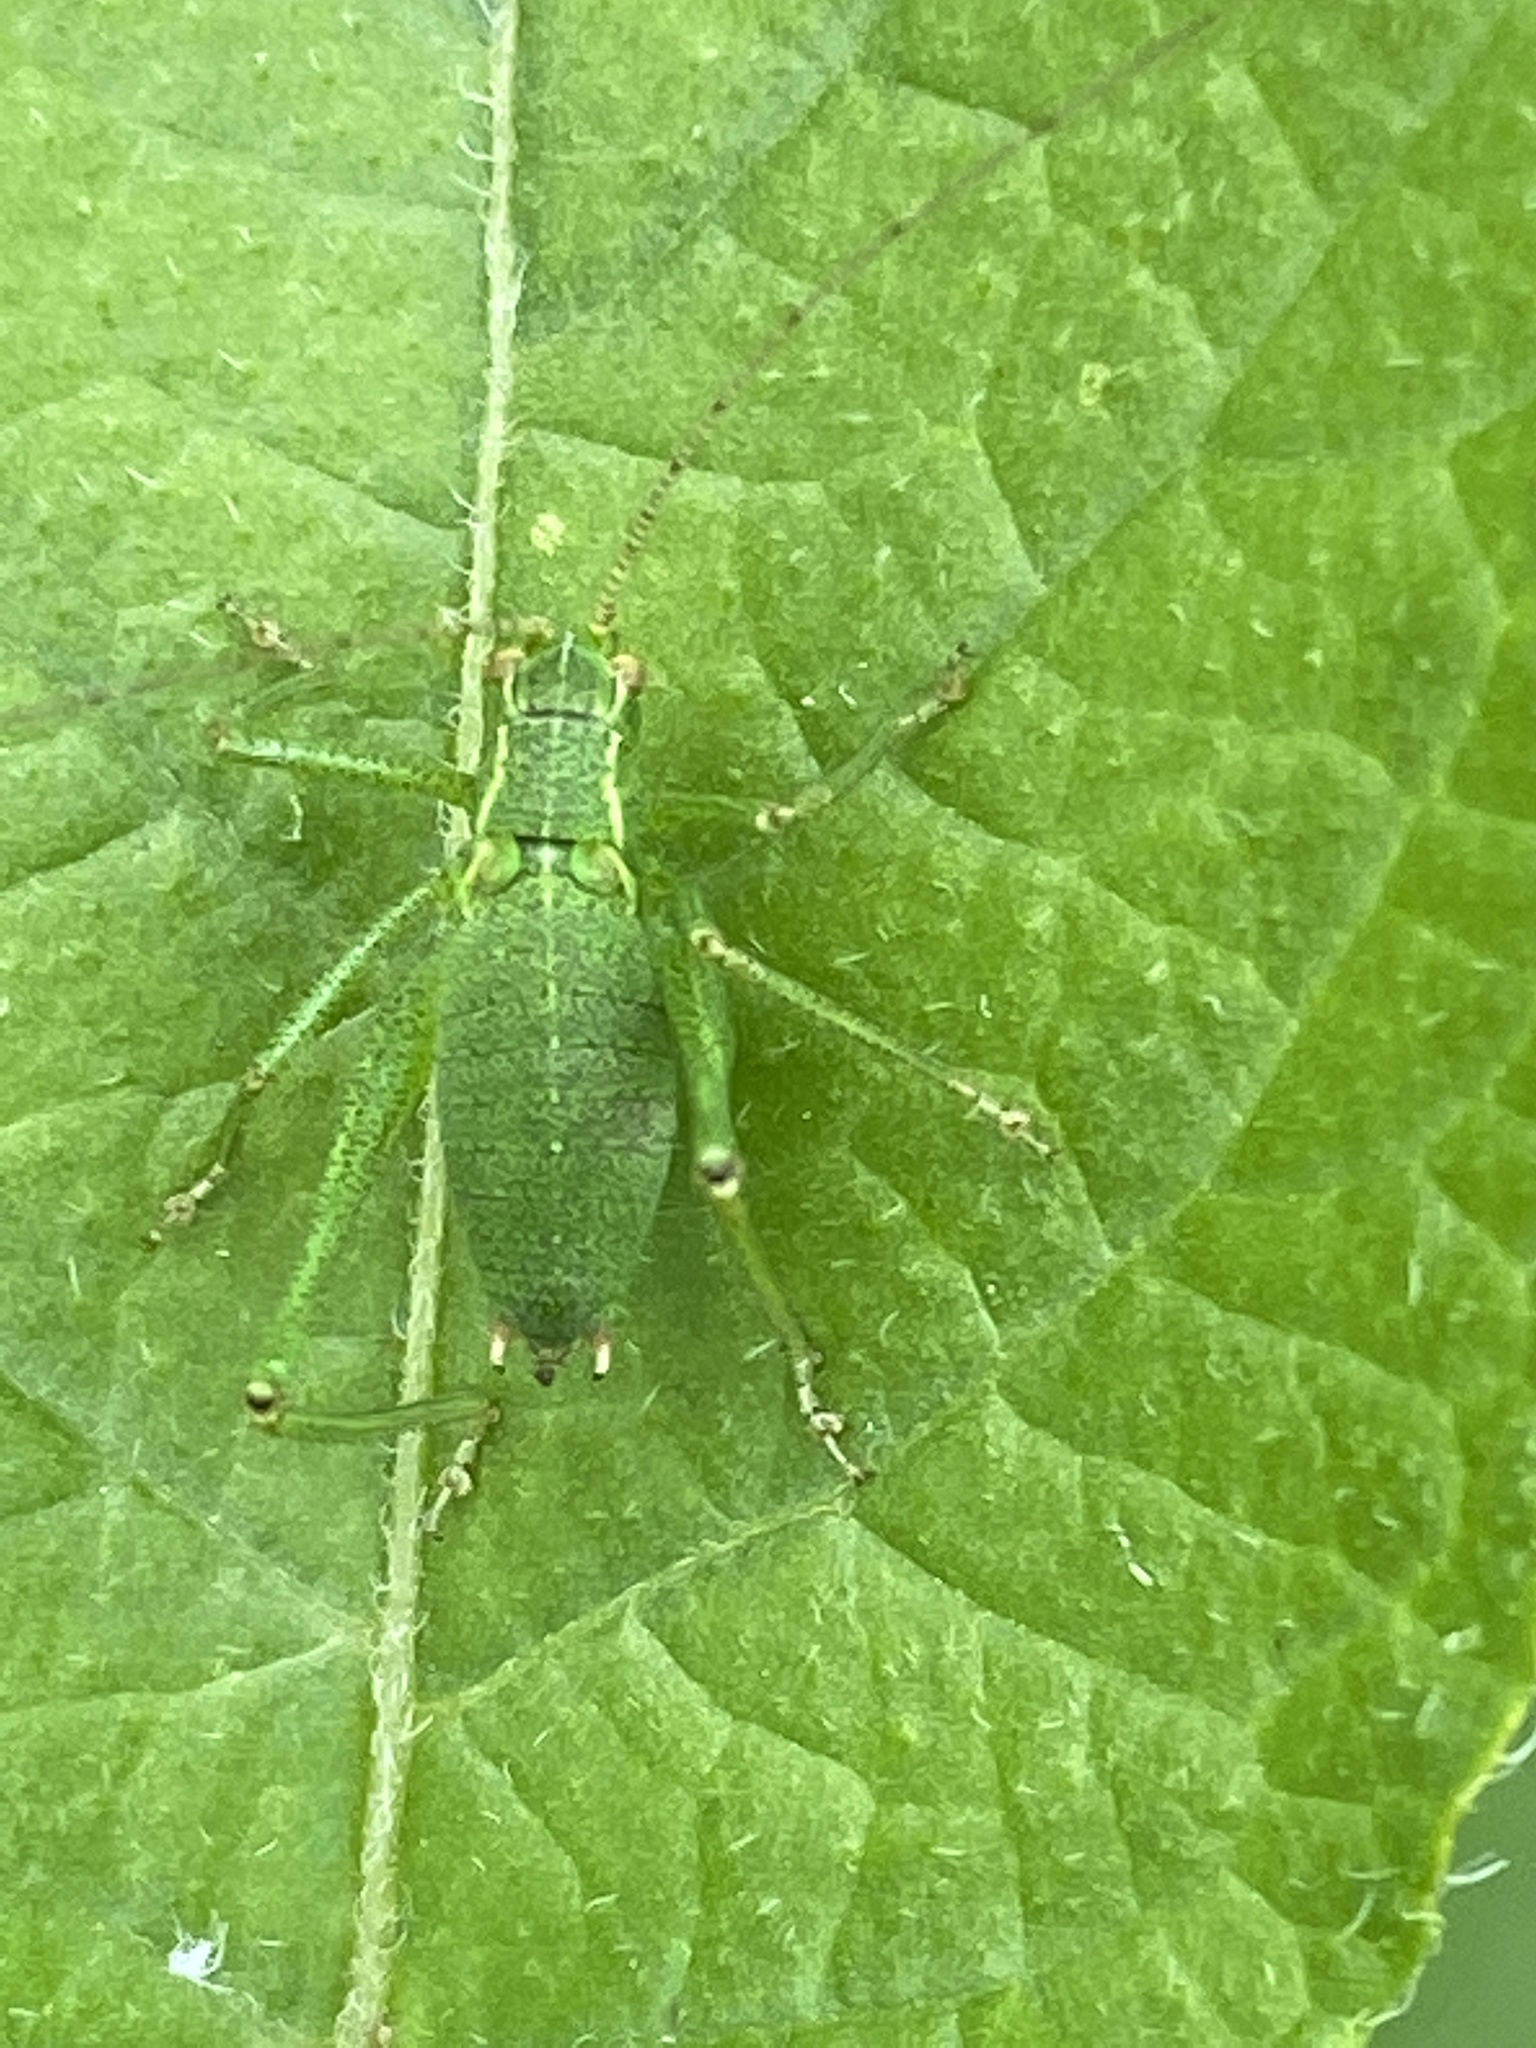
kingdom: Animalia
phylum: Arthropoda
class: Insecta
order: Orthoptera
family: Tettigoniidae
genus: Leptophyes
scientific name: Leptophyes punctatissima
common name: Speckled bush-cricket
